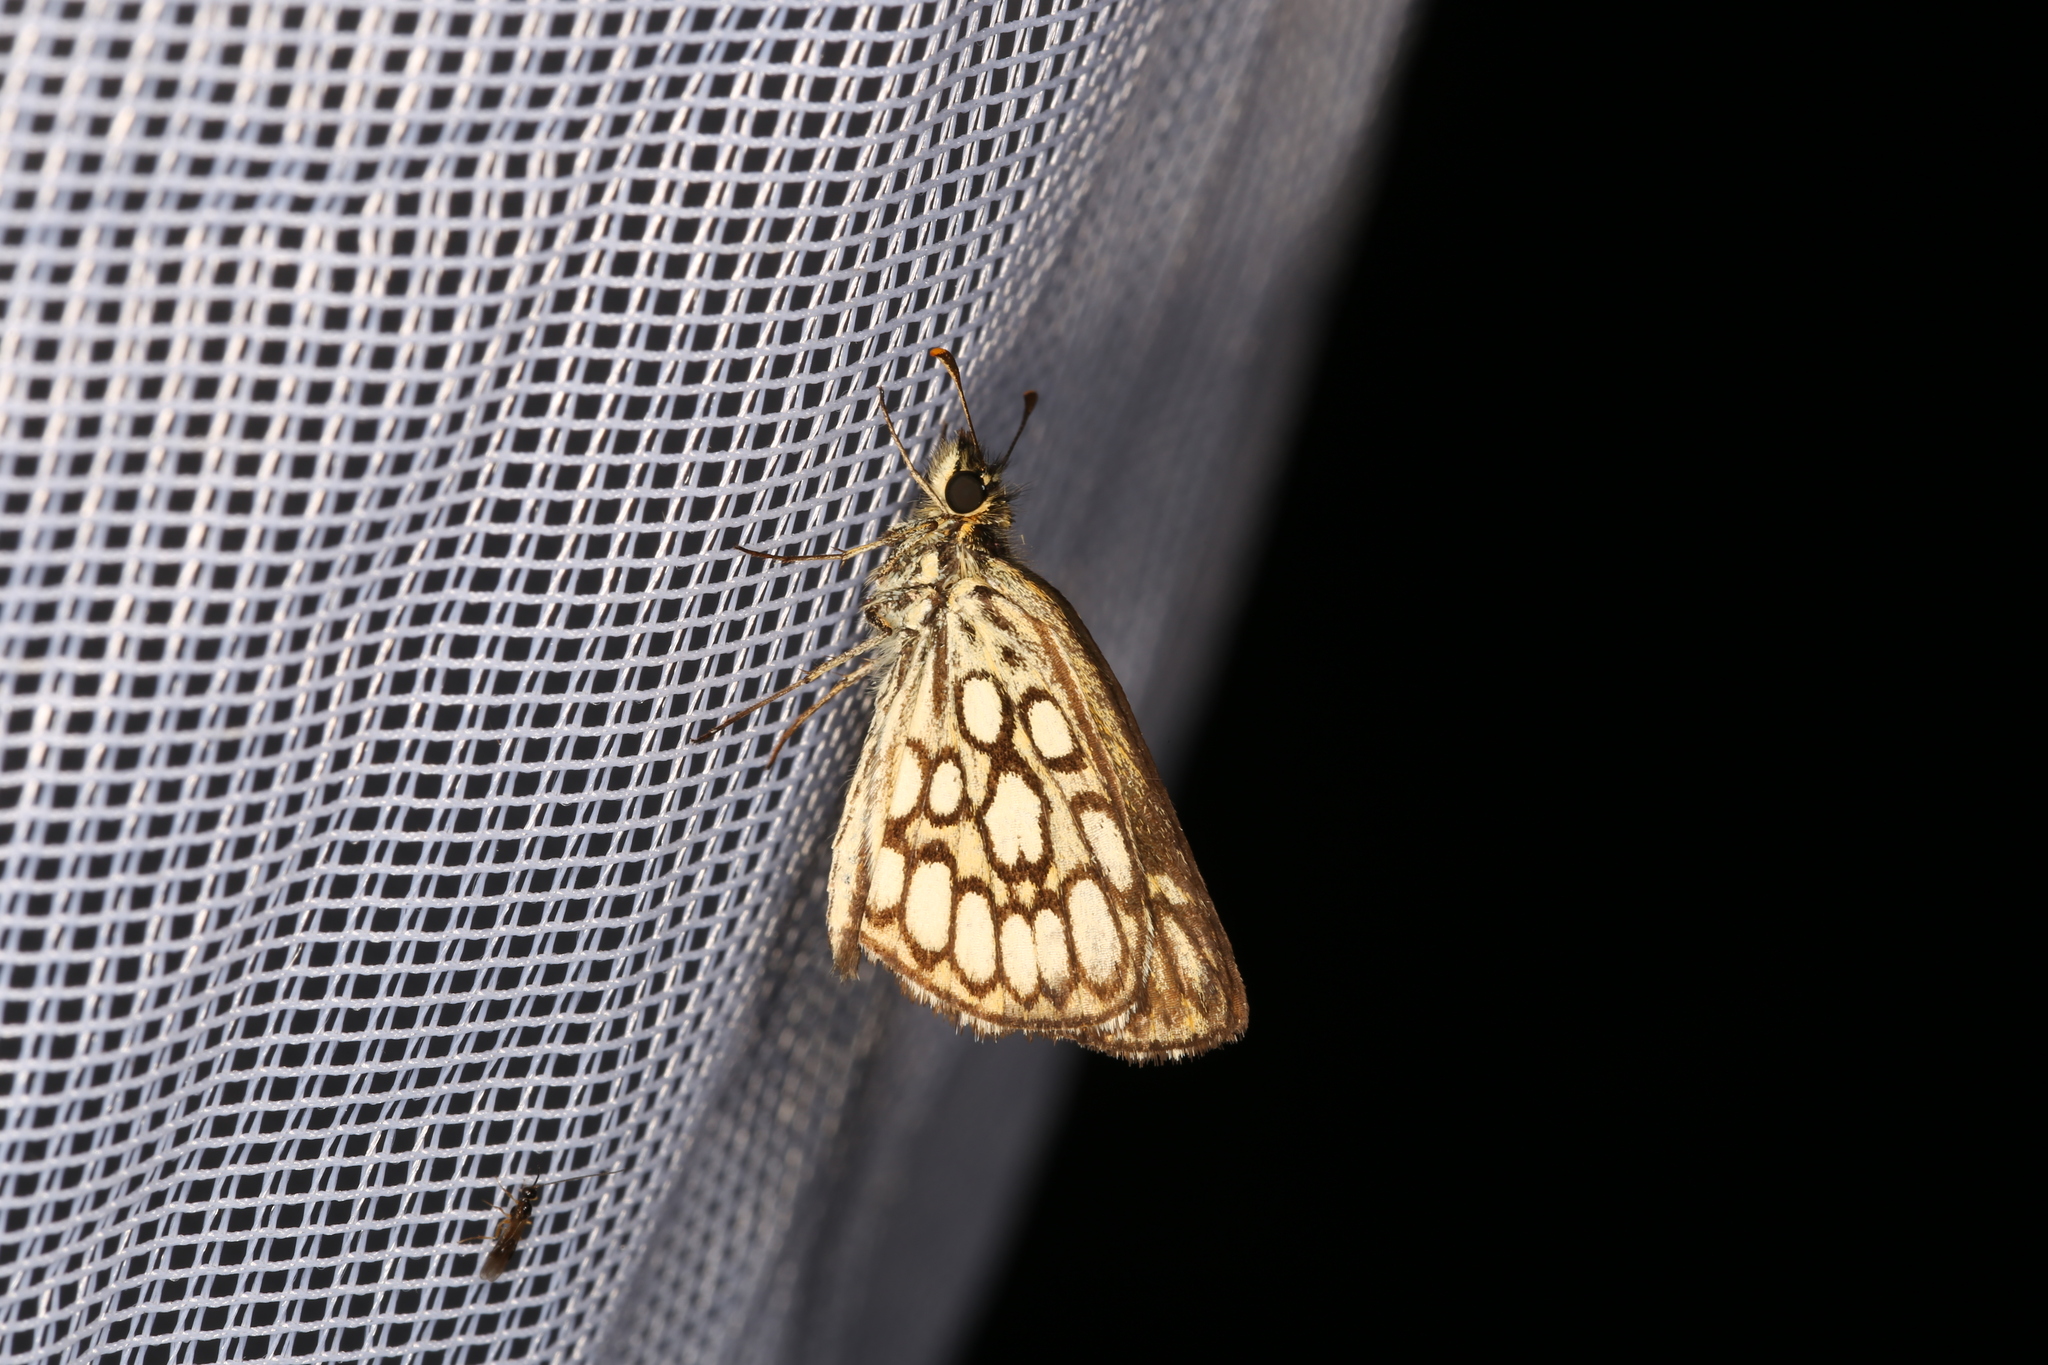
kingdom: Animalia
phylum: Arthropoda
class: Insecta
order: Lepidoptera
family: Hesperiidae
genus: Heteropterus
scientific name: Heteropterus morpheus
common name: Large chequered skipper
